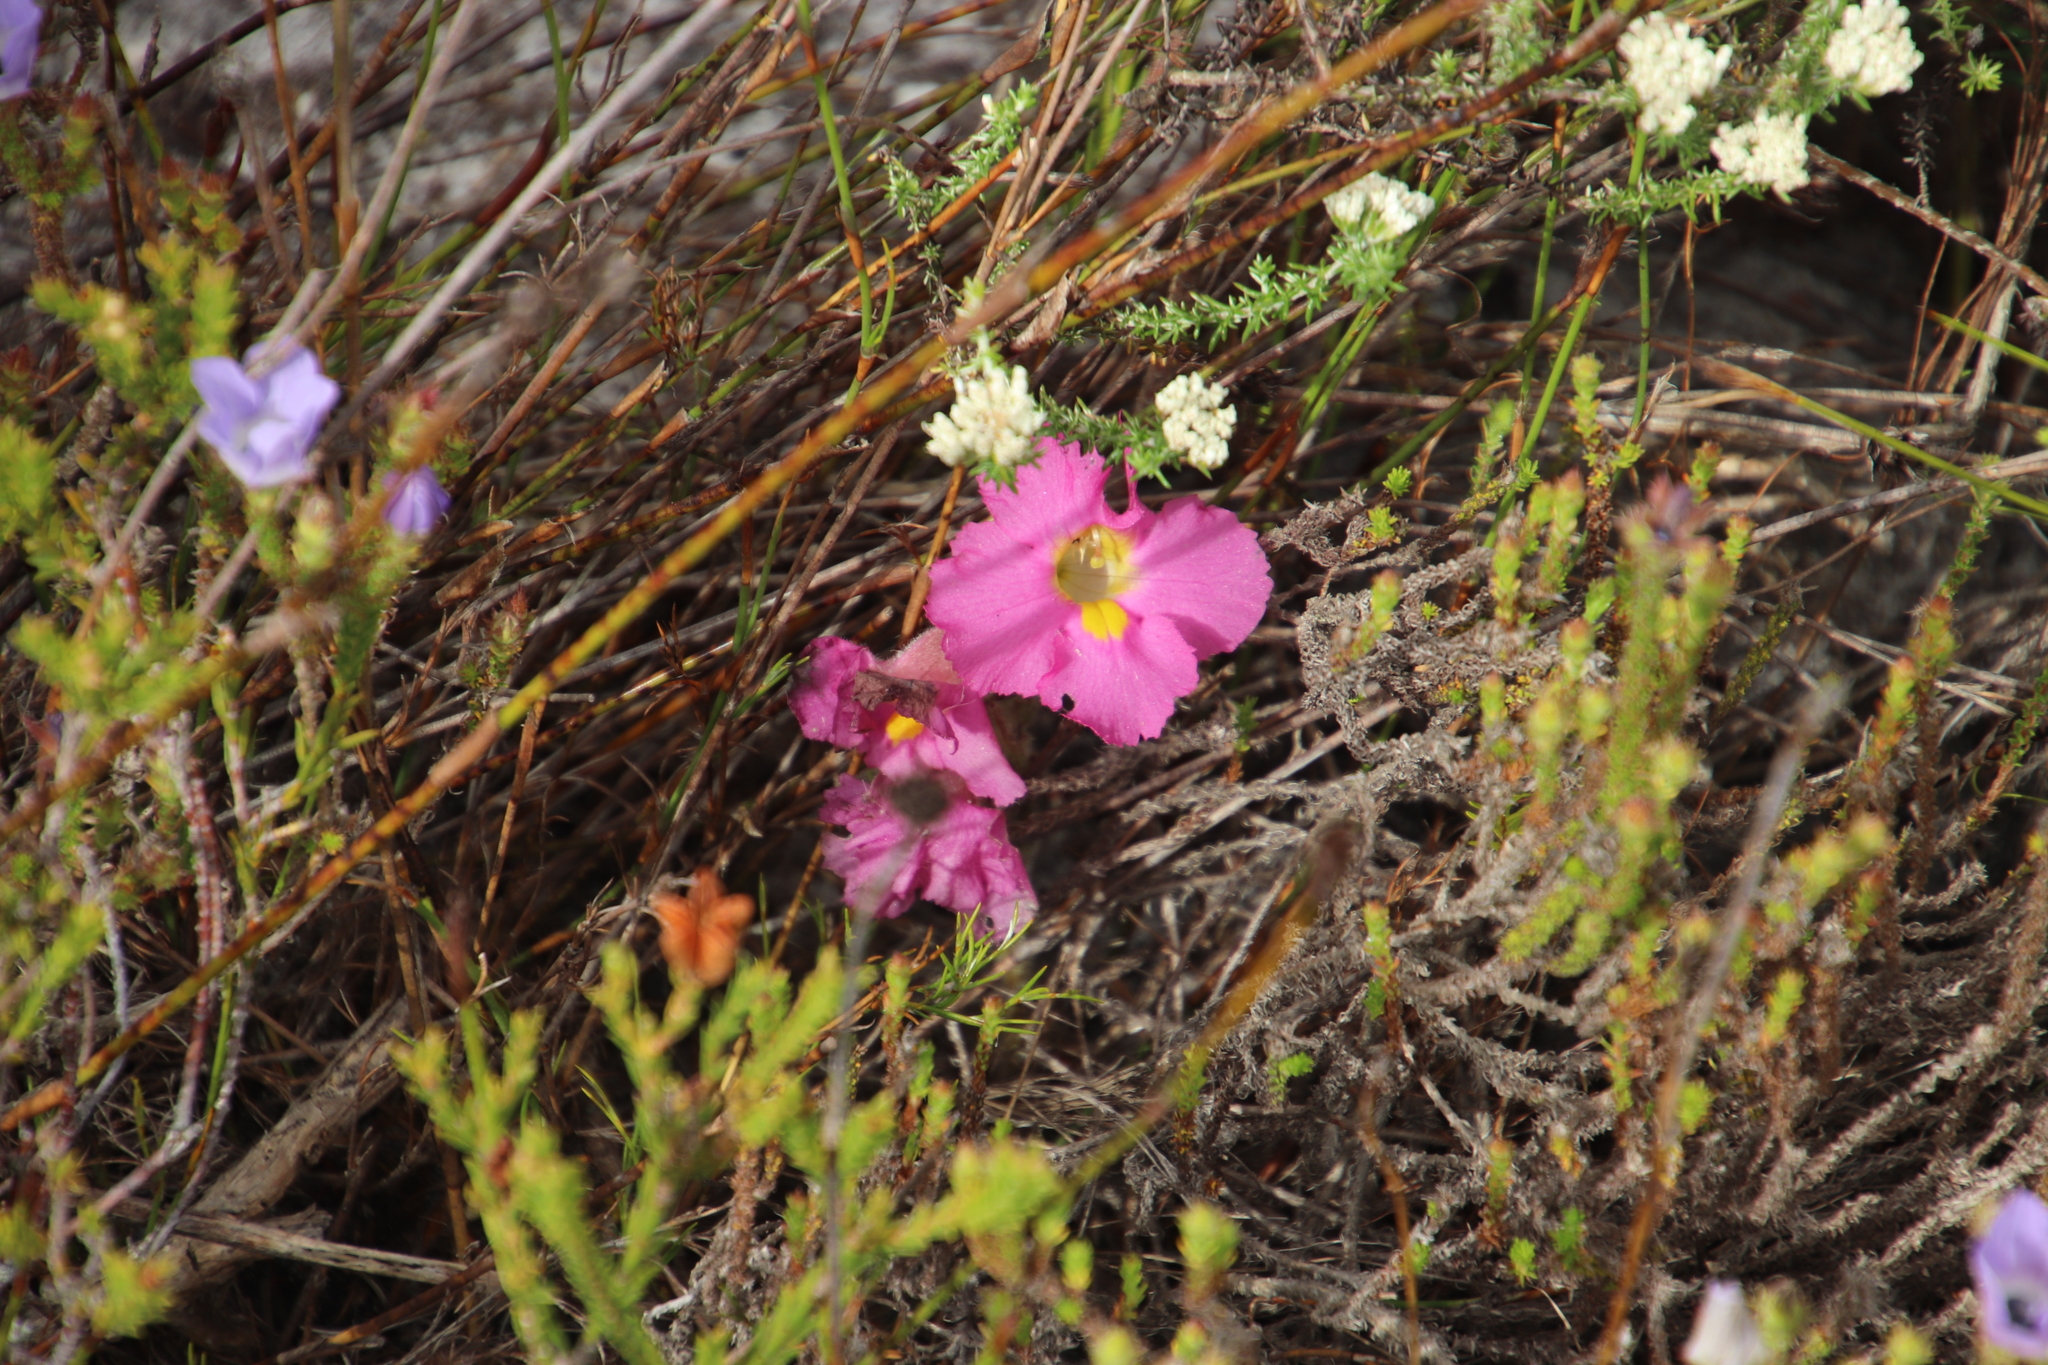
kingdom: Plantae
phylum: Tracheophyta
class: Magnoliopsida
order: Lamiales
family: Orobanchaceae
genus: Harveya
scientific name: Harveya purpurea
